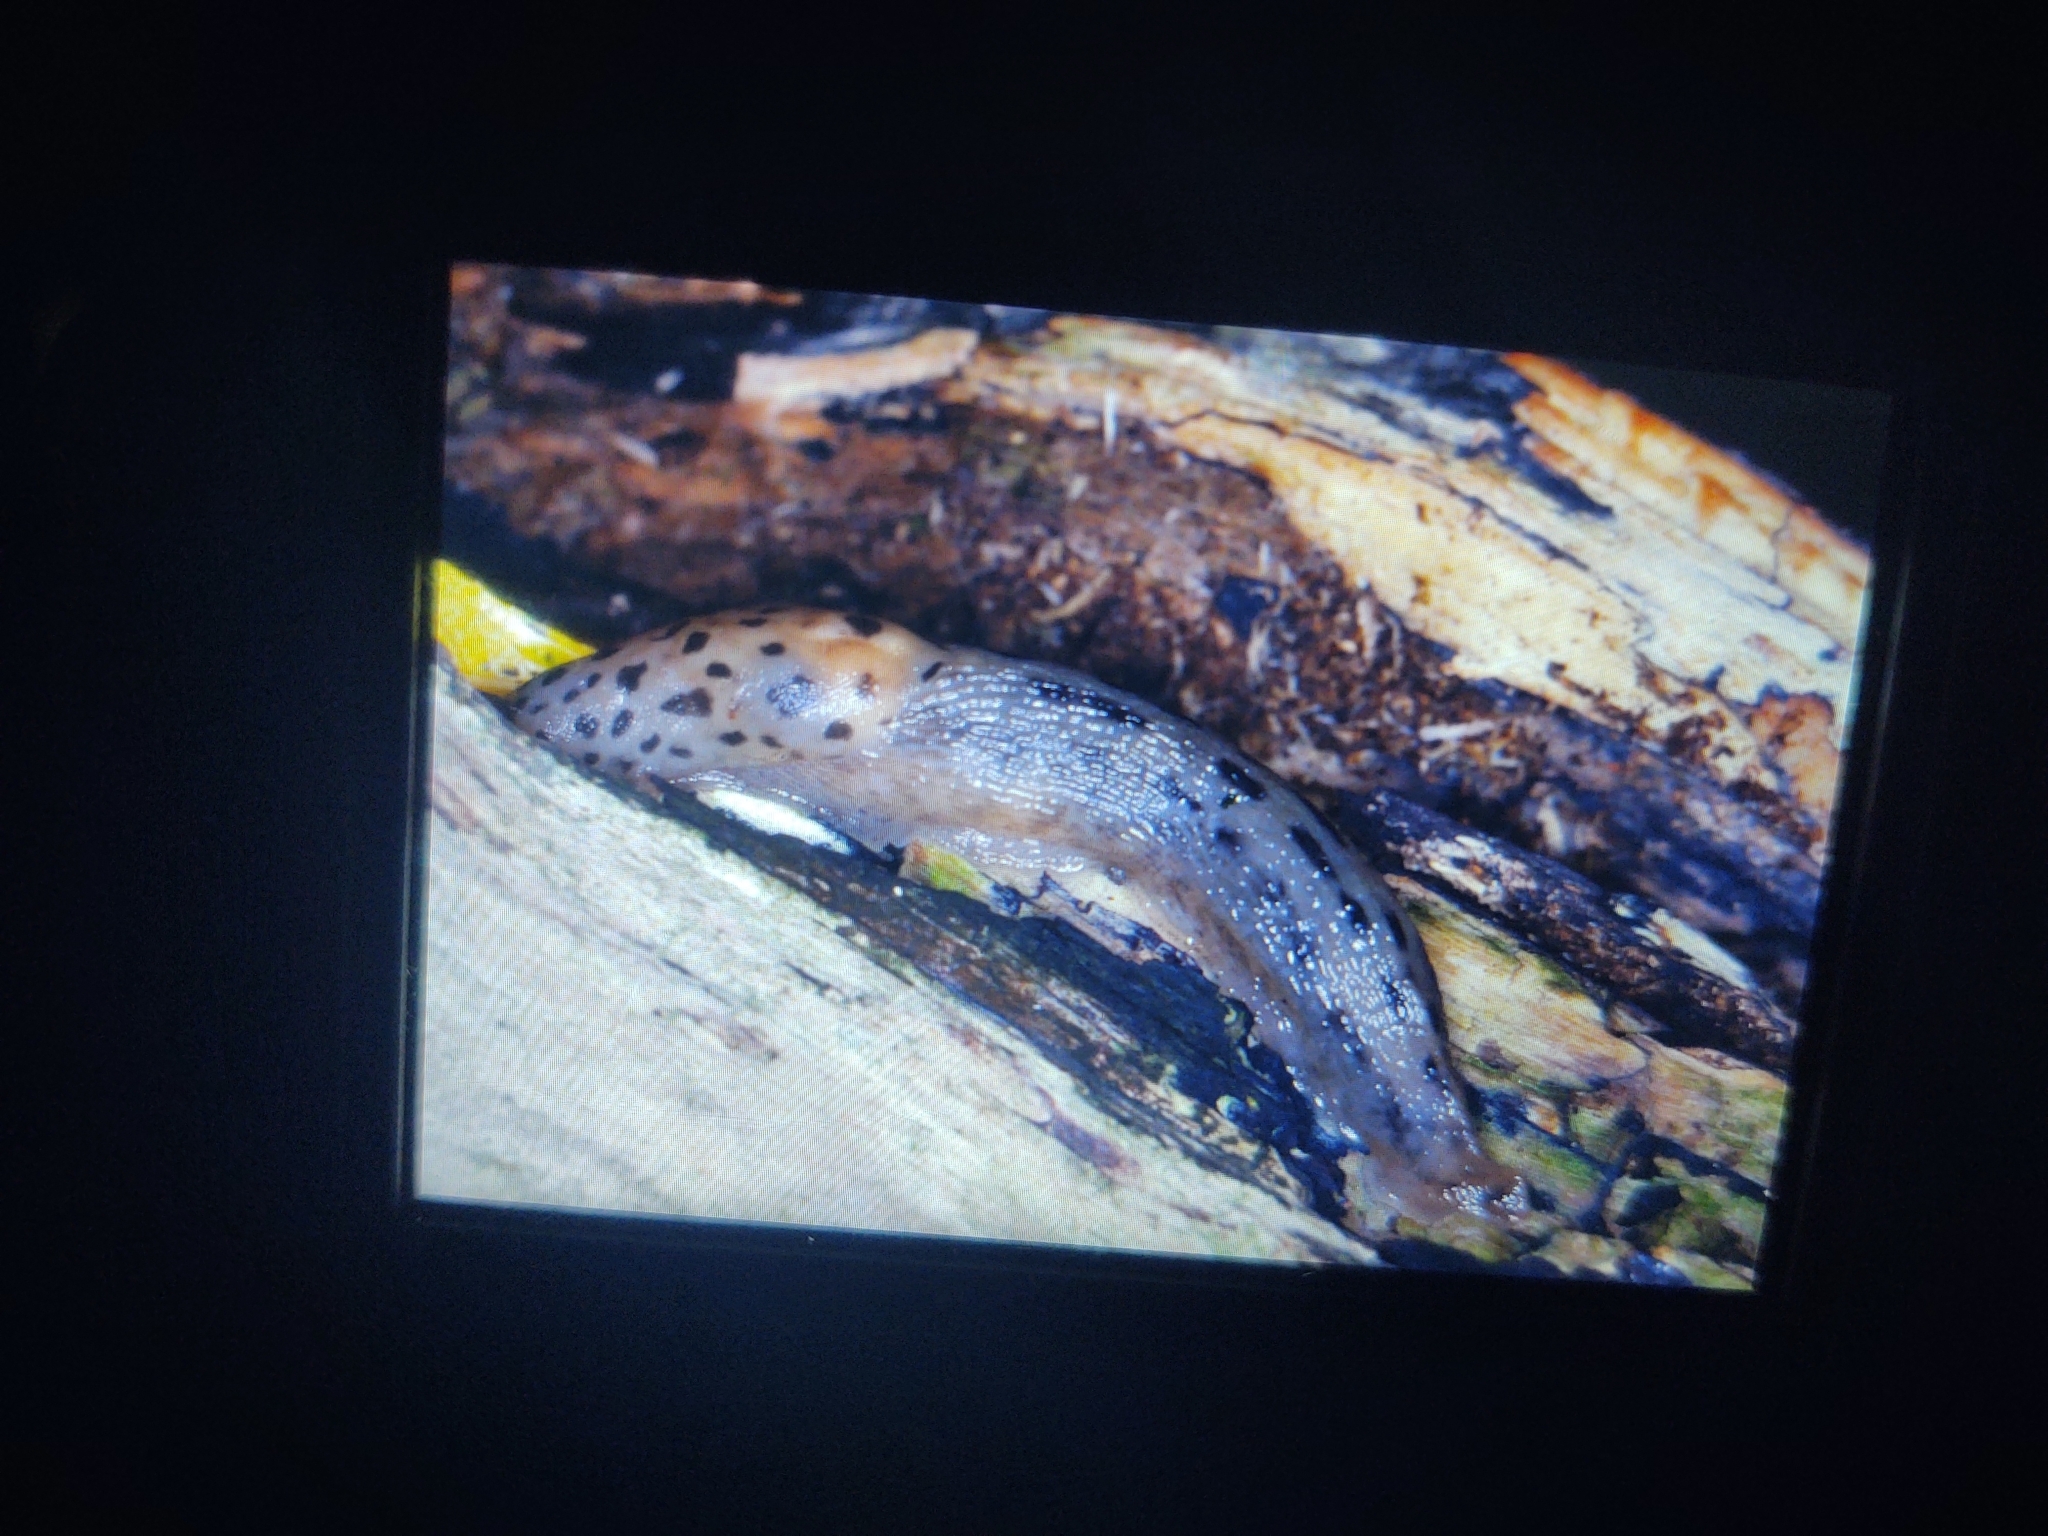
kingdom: Animalia
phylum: Mollusca
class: Gastropoda
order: Stylommatophora
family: Limacidae
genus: Limax
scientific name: Limax maximus
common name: Great grey slug
